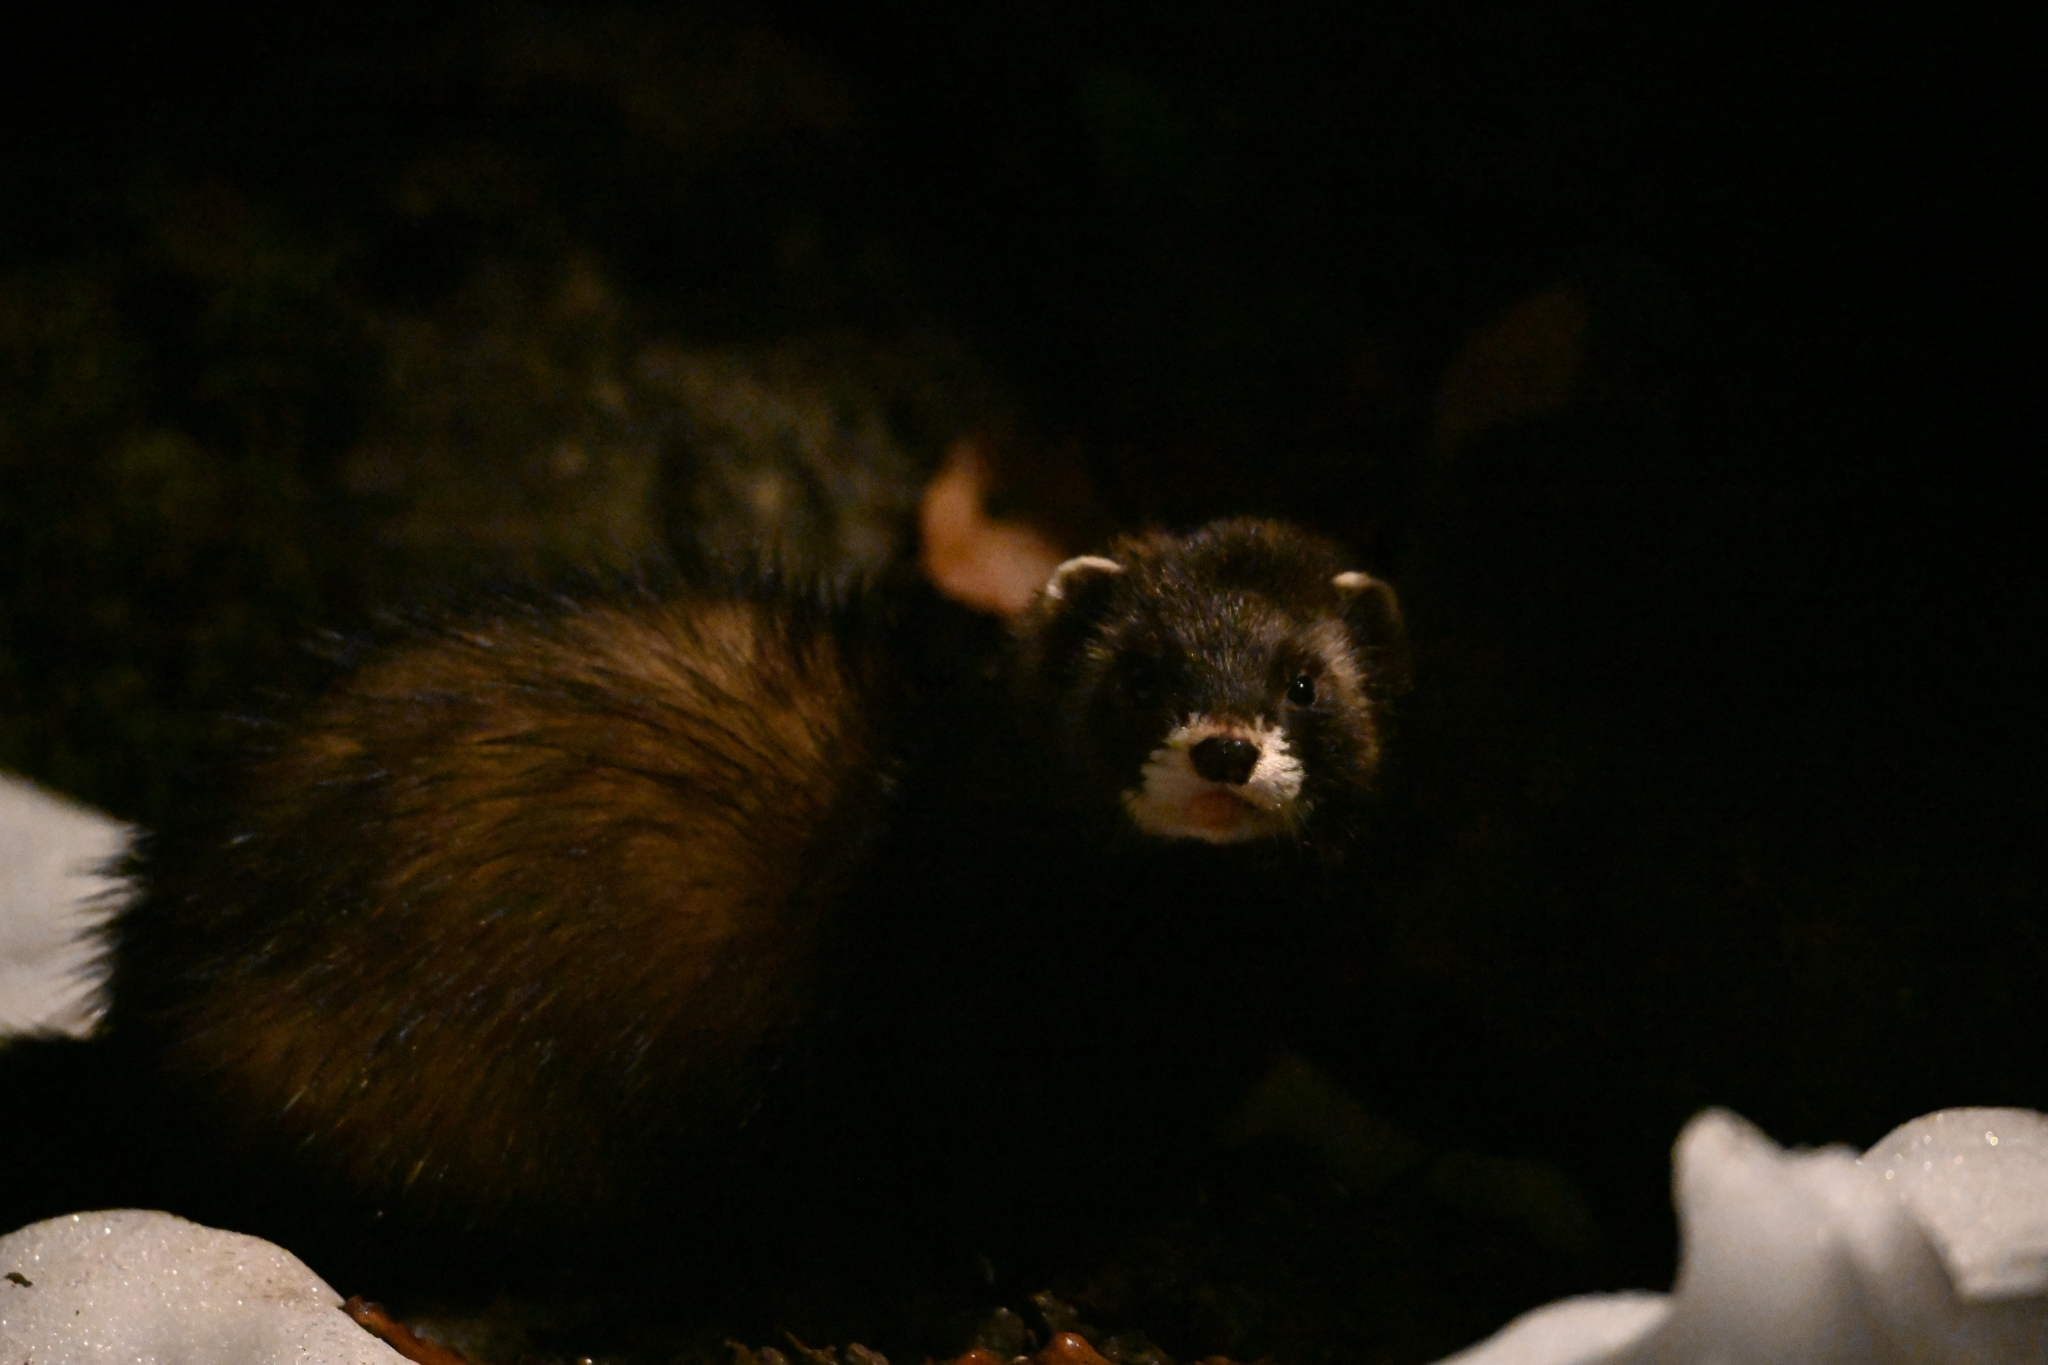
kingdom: Animalia
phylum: Chordata
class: Mammalia
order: Carnivora
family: Mustelidae
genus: Mustela
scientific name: Mustela putorius
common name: European polecat
